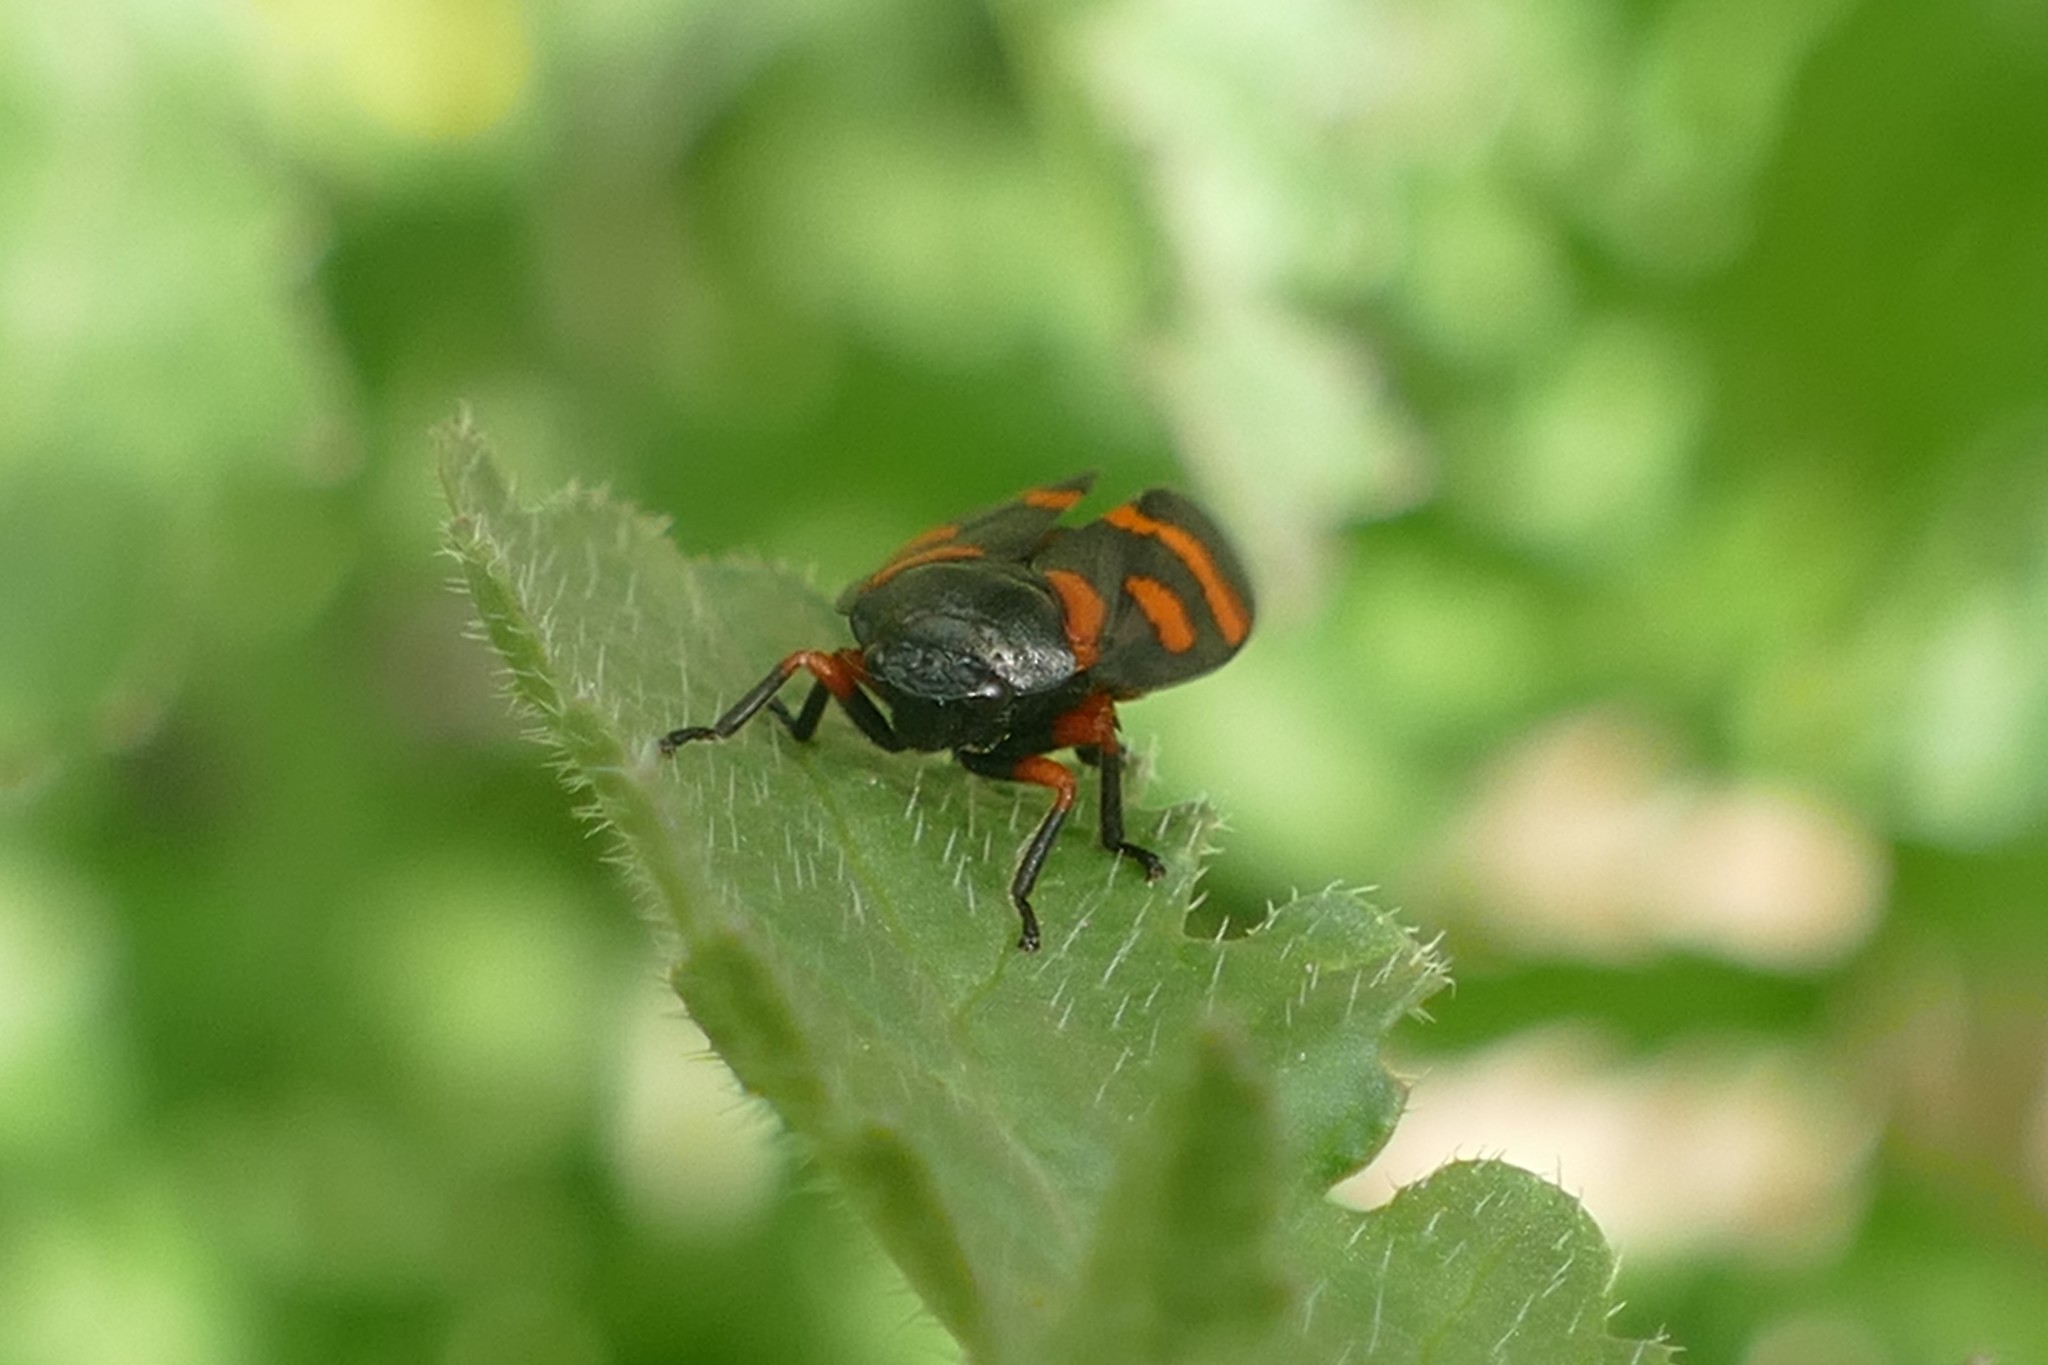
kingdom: Animalia
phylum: Arthropoda
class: Insecta
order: Hemiptera
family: Cercopidae
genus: Cercopis
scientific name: Cercopis intermedia
